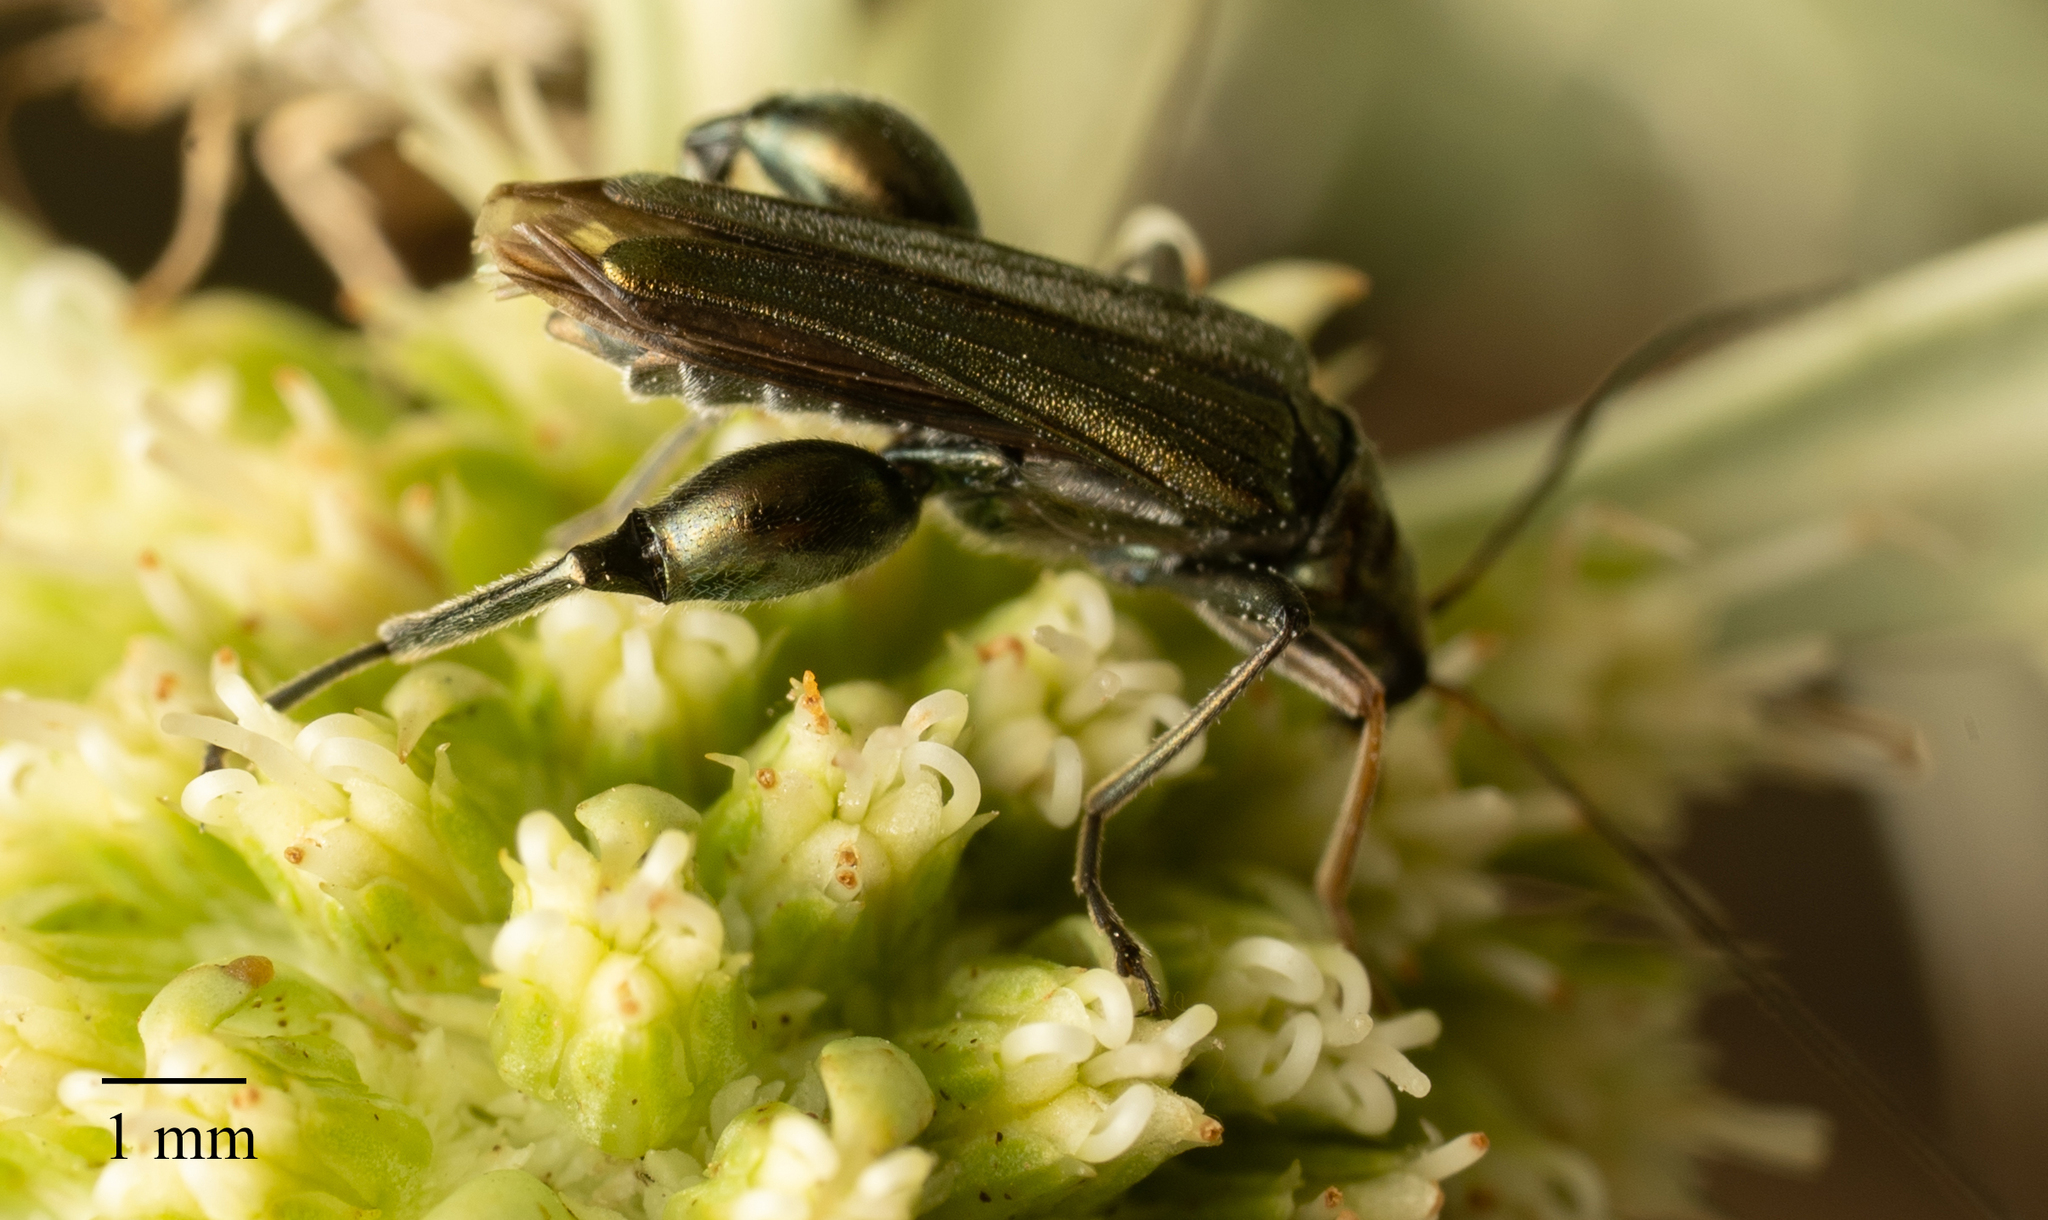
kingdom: Animalia
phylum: Arthropoda
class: Insecta
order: Coleoptera
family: Oedemeridae
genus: Oedemera
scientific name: Oedemera flavipes
